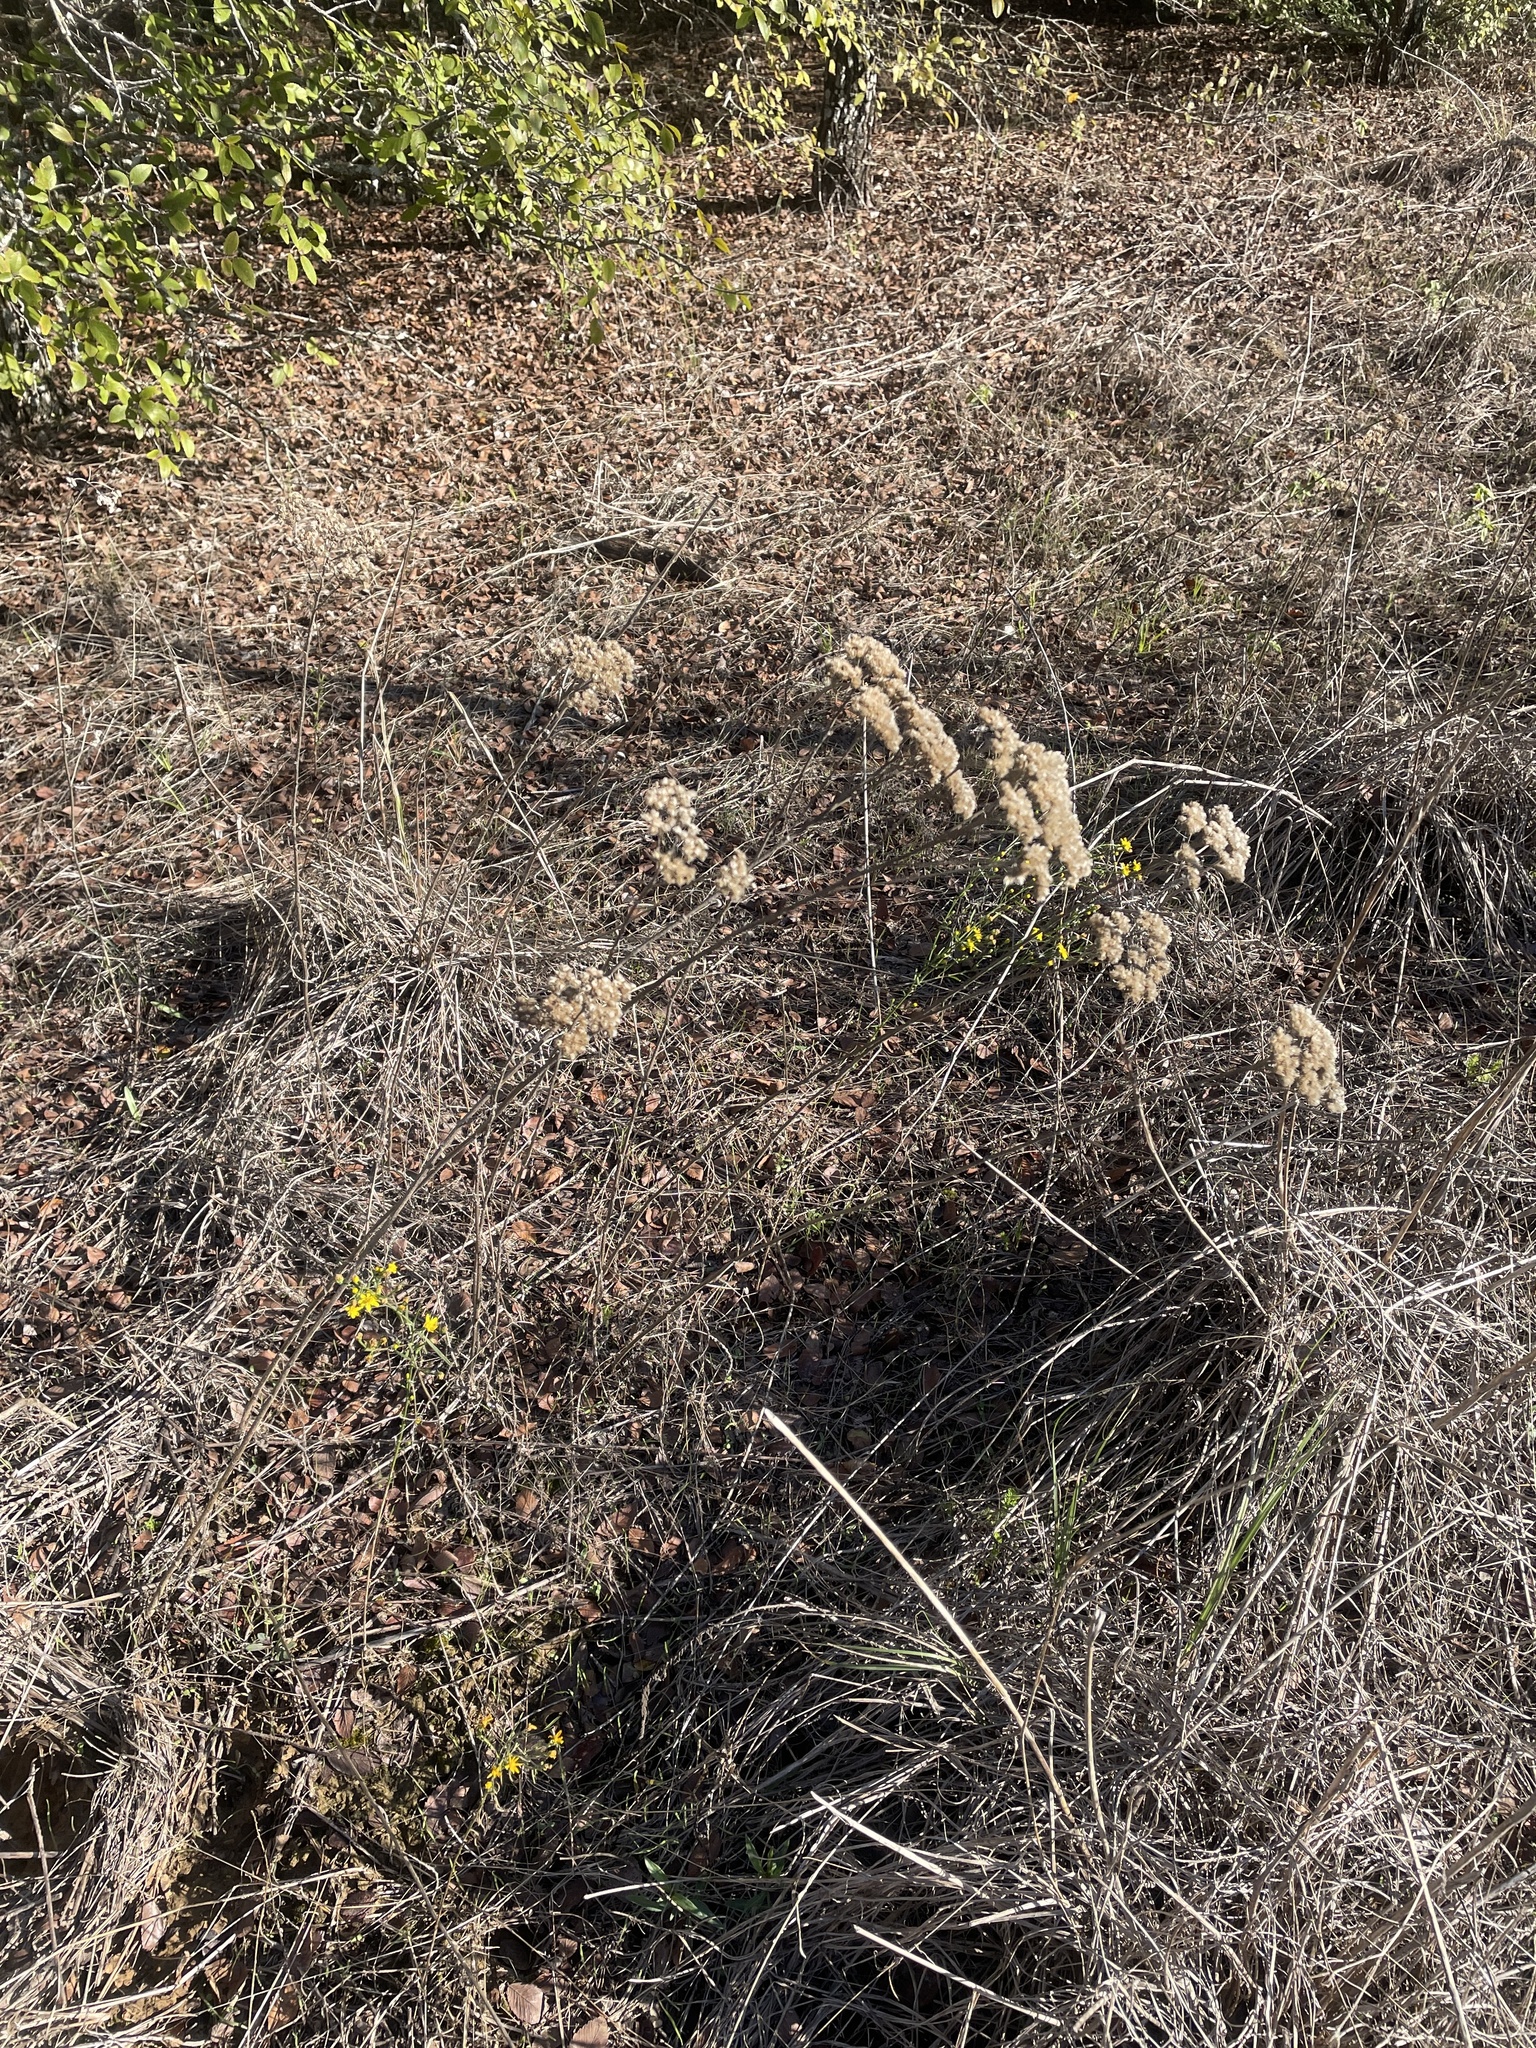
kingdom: Plantae
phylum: Tracheophyta
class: Magnoliopsida
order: Asterales
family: Asteraceae
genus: Achillea
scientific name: Achillea millefolium
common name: Yarrow
